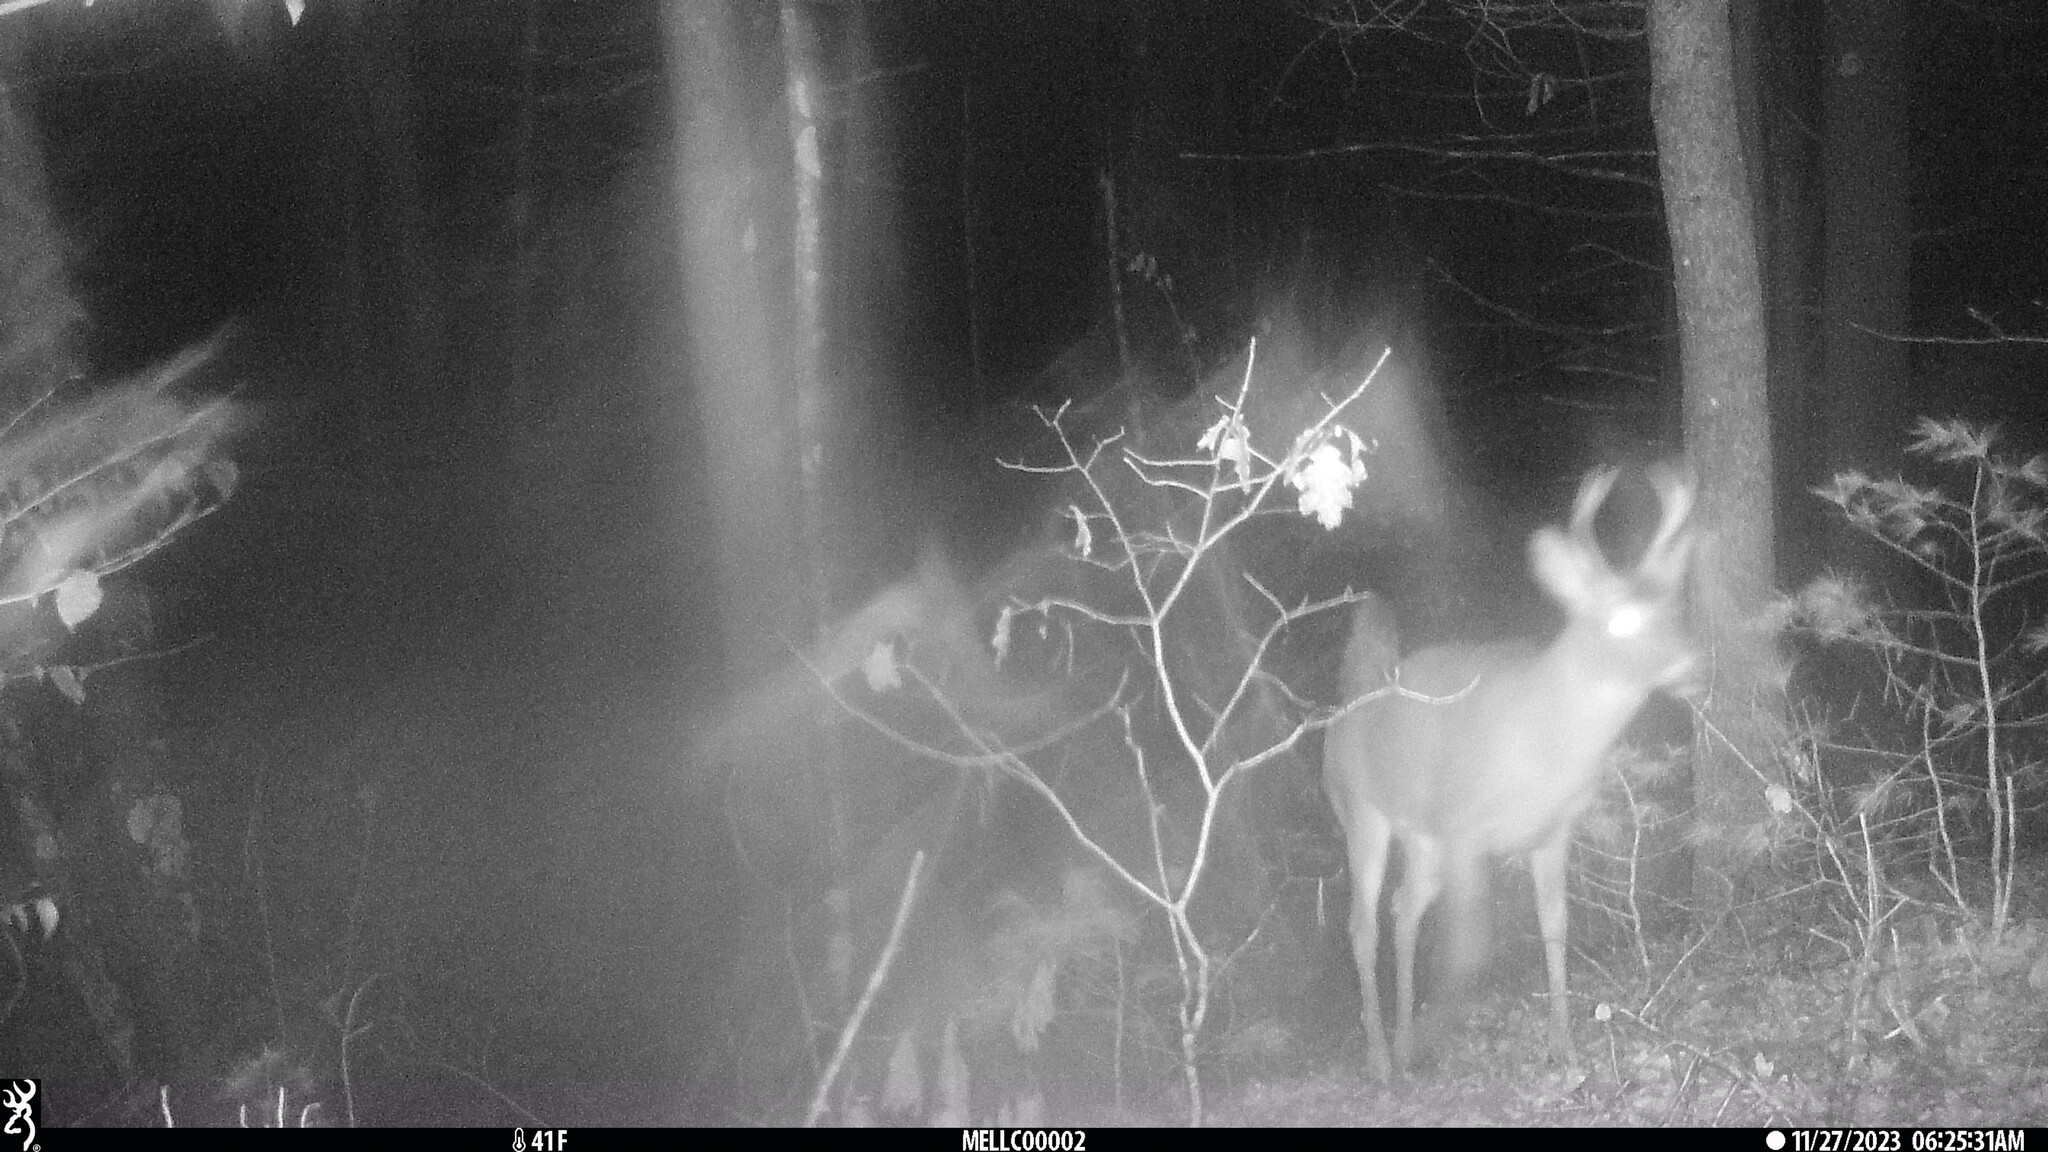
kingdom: Animalia
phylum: Chordata
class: Mammalia
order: Artiodactyla
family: Cervidae
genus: Odocoileus
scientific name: Odocoileus virginianus
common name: White-tailed deer
